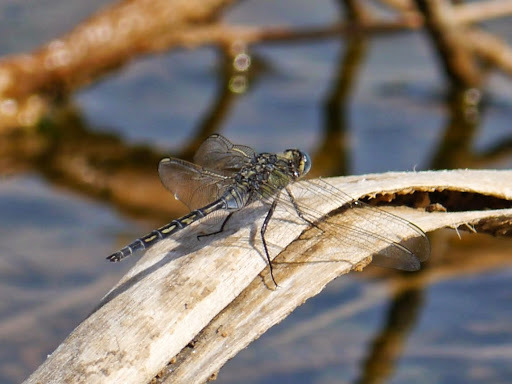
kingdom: Animalia
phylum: Arthropoda
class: Insecta
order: Odonata
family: Libellulidae
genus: Orthetrum
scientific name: Orthetrum trinacria
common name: Long skimmer
